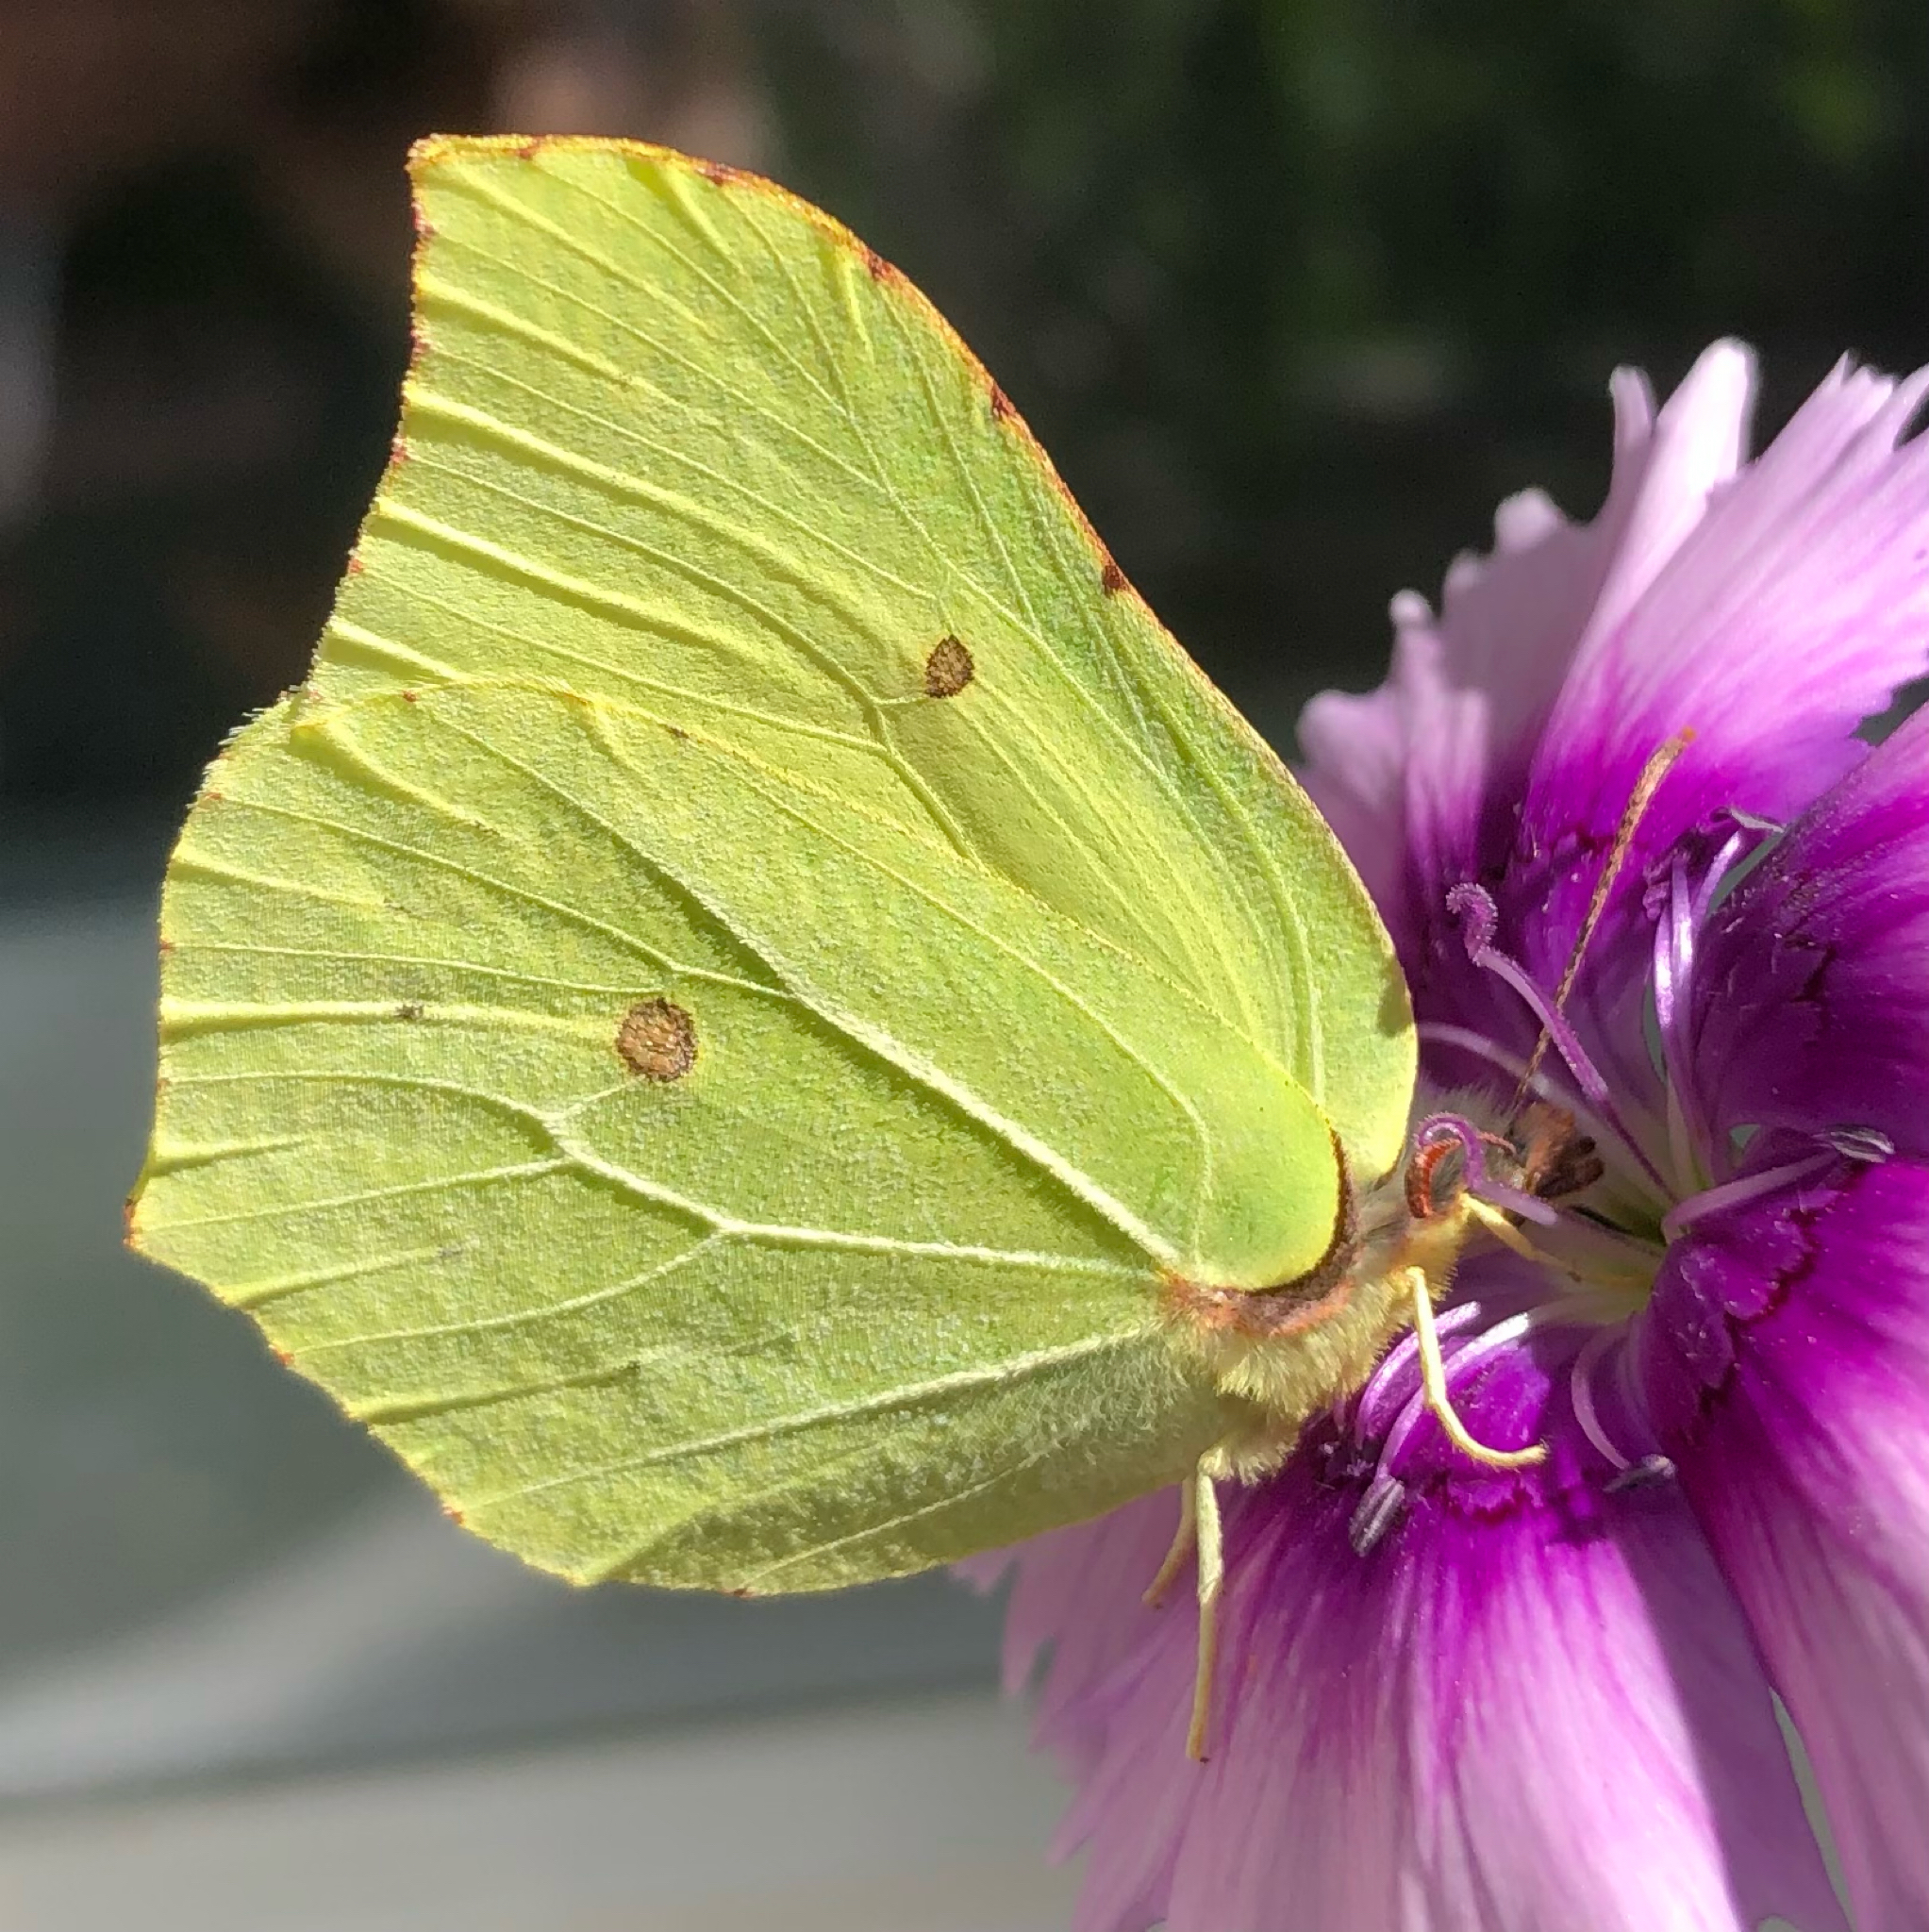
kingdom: Animalia
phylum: Arthropoda
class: Insecta
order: Lepidoptera
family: Pieridae
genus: Gonepteryx
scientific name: Gonepteryx rhamni
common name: Brimstone
